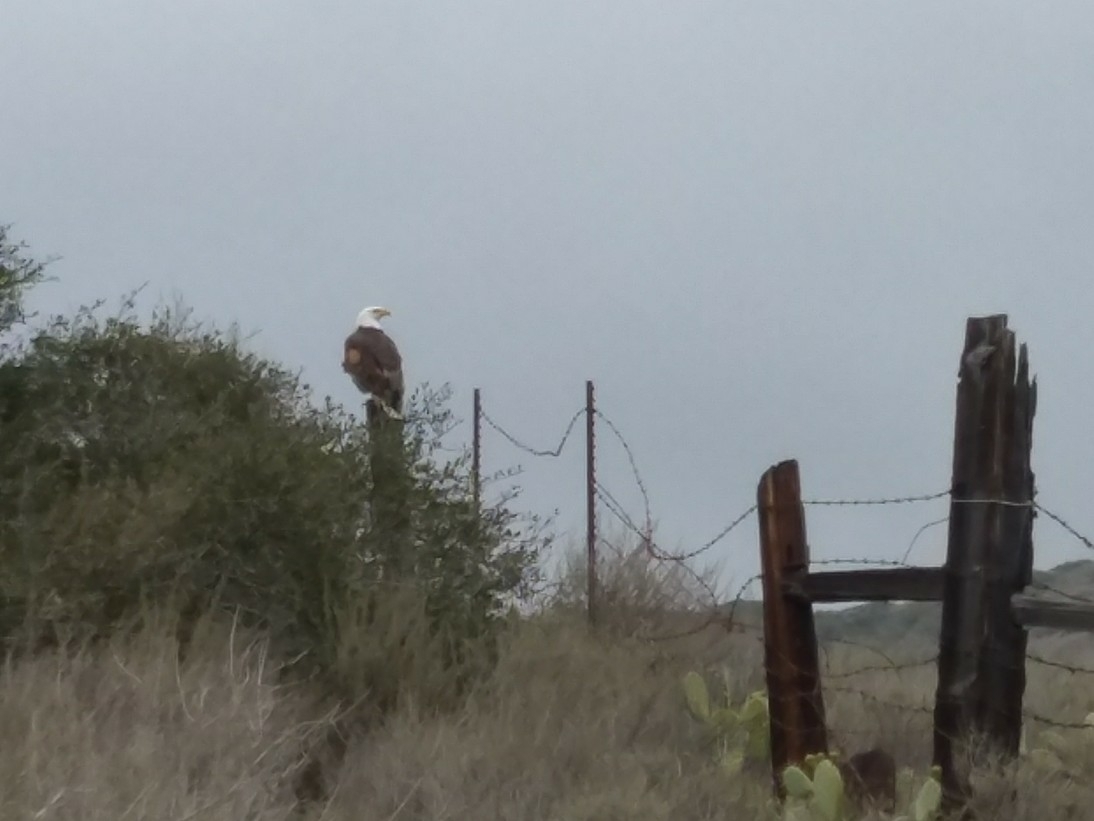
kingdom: Animalia
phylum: Chordata
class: Aves
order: Accipitriformes
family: Accipitridae
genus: Haliaeetus
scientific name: Haliaeetus leucocephalus
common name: Bald eagle
